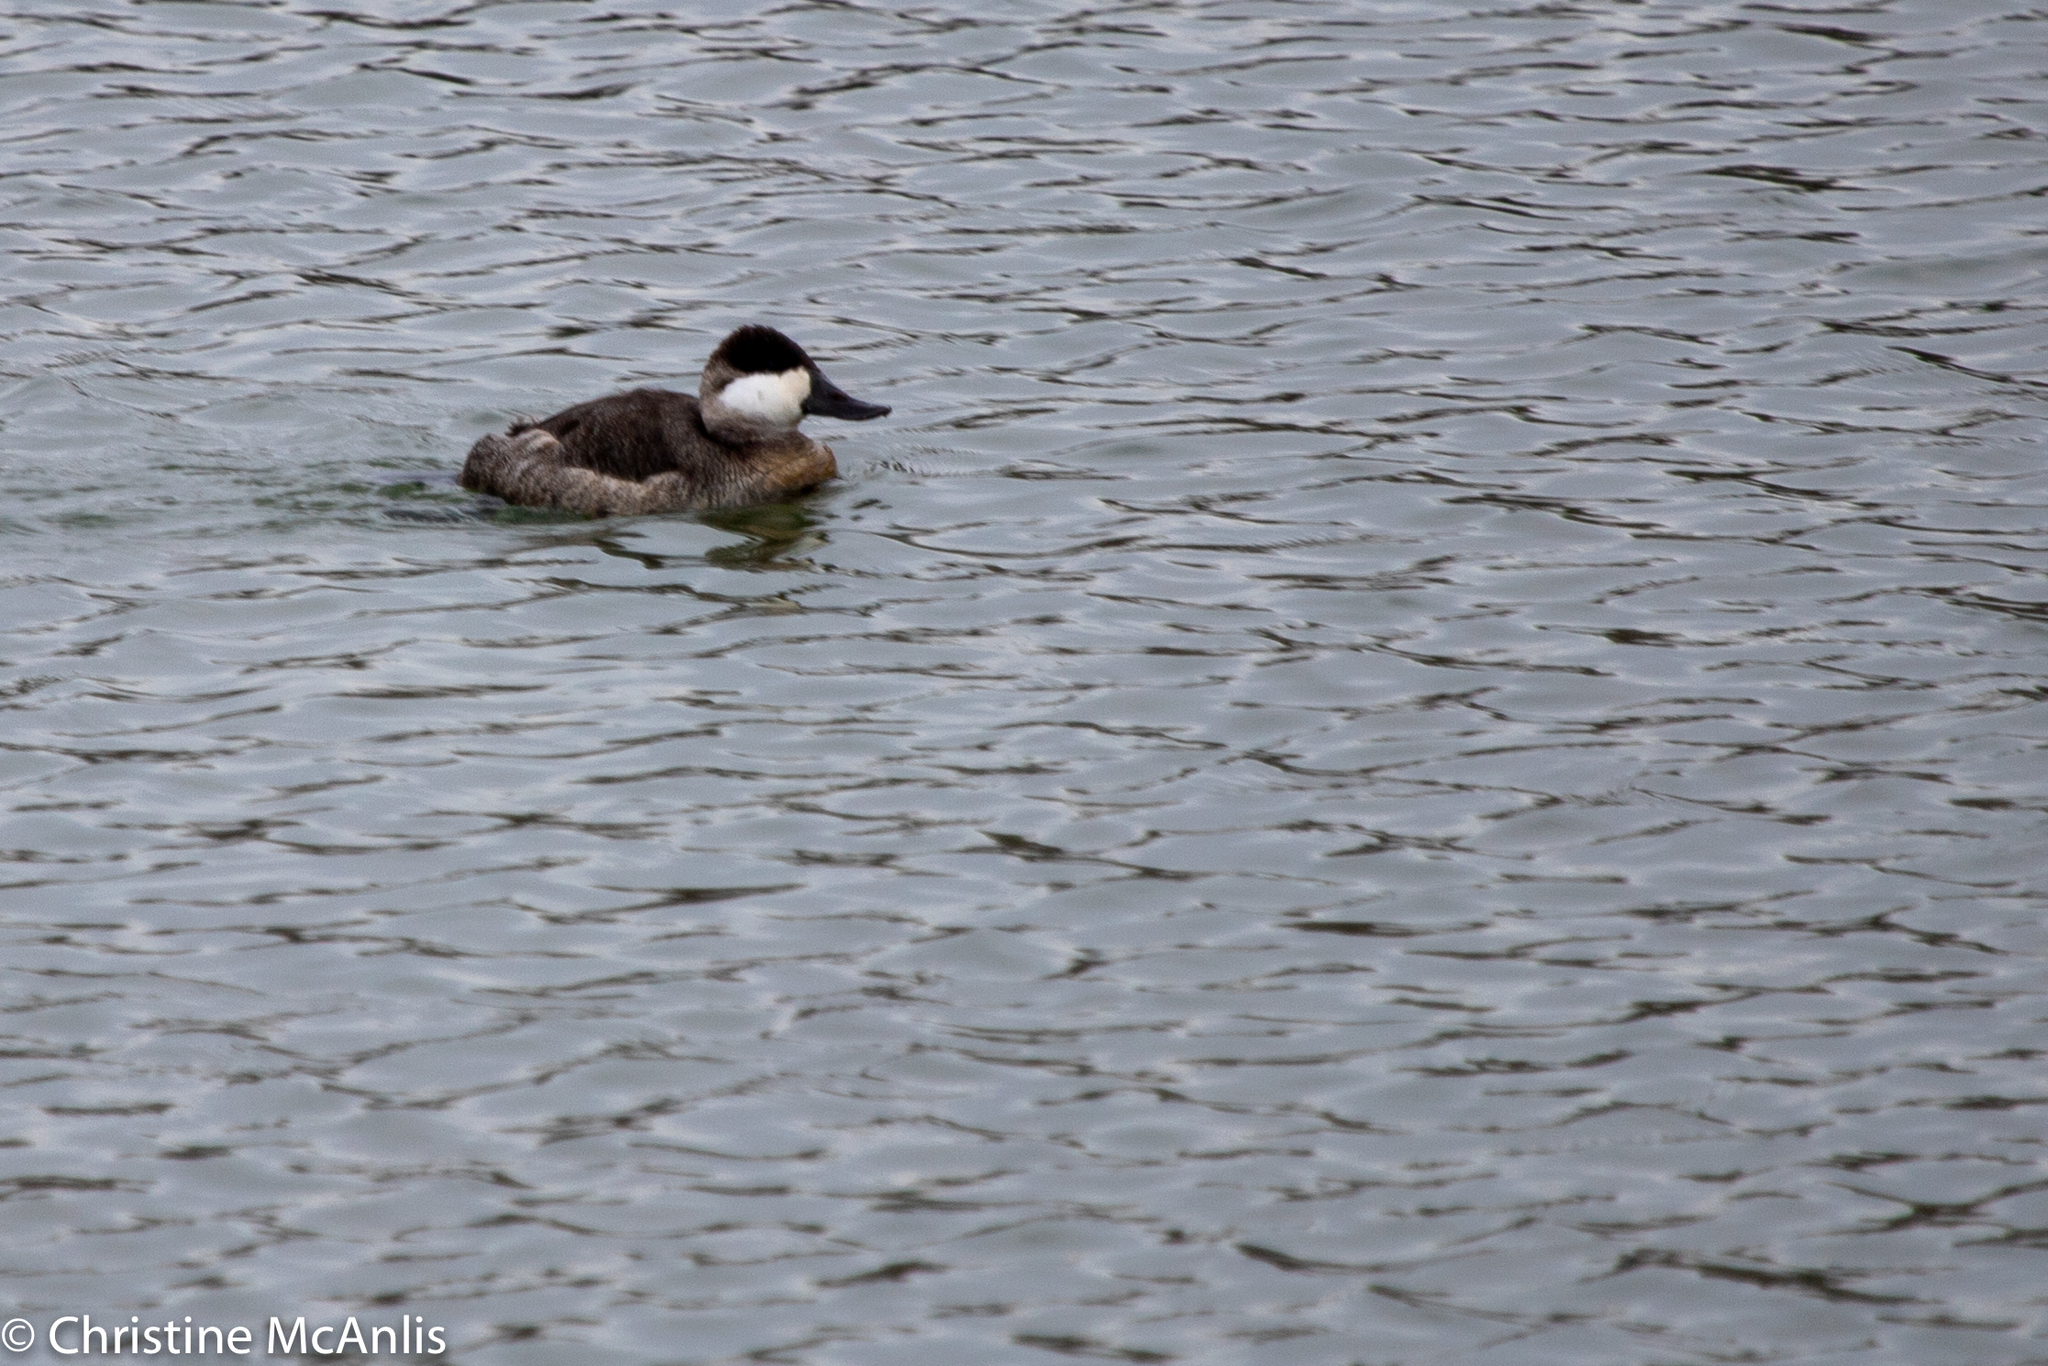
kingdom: Animalia
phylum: Chordata
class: Aves
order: Anseriformes
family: Anatidae
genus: Oxyura
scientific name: Oxyura jamaicensis
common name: Ruddy duck
